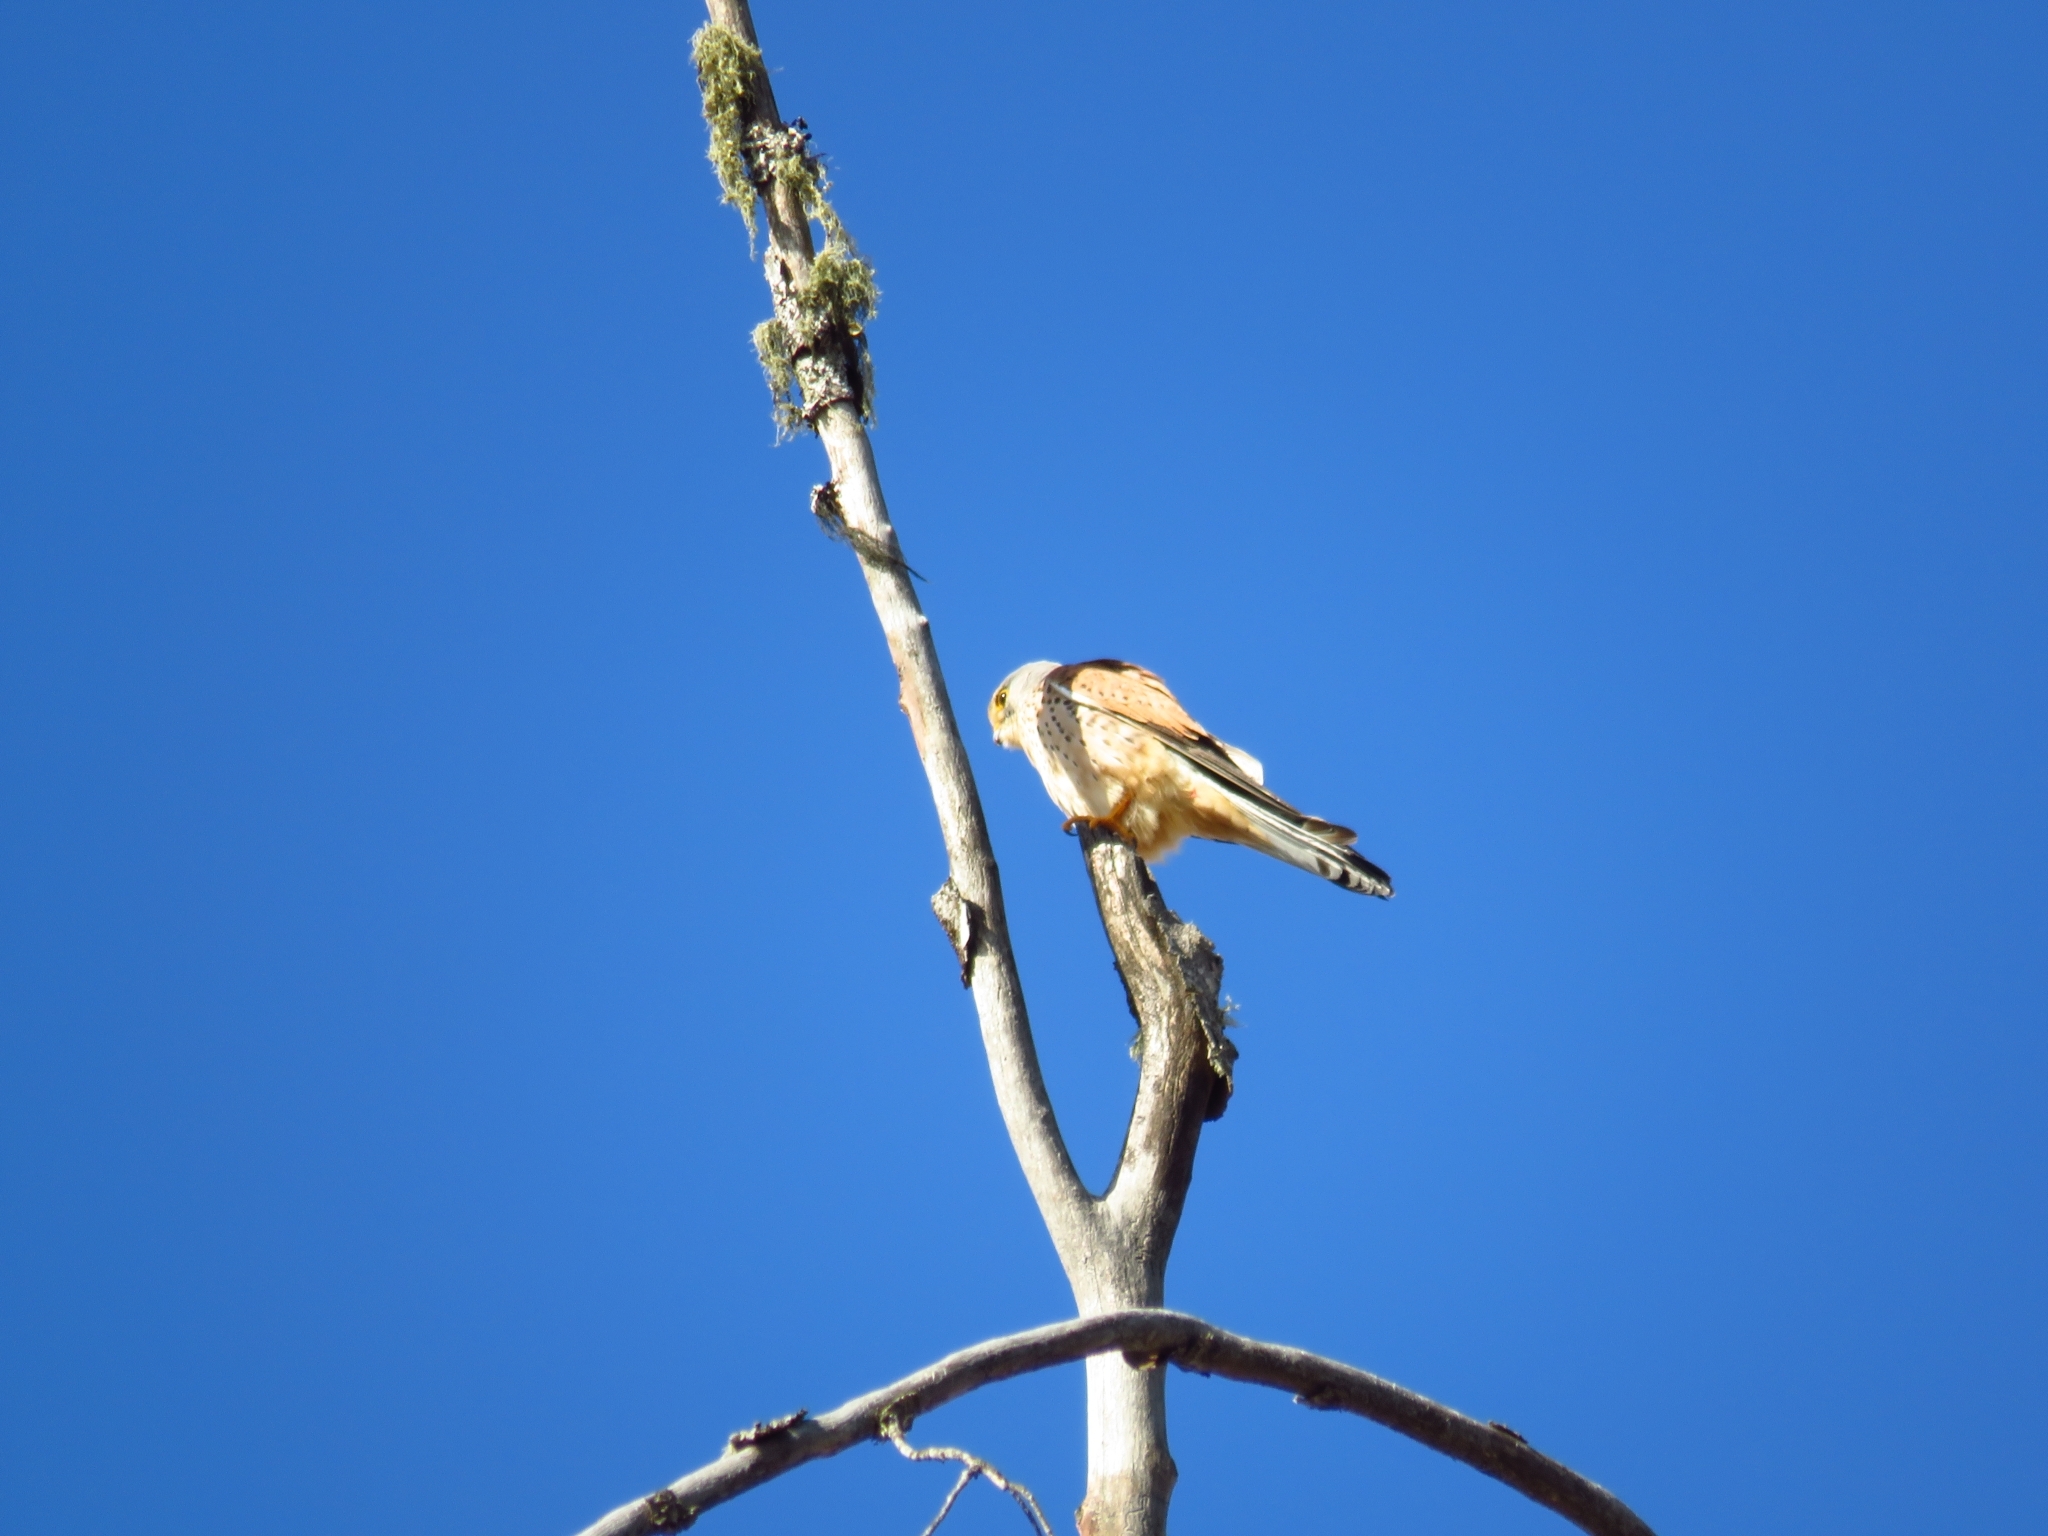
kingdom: Animalia
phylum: Chordata
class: Aves
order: Falconiformes
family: Falconidae
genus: Falco
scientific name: Falco tinnunculus
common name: Common kestrel
